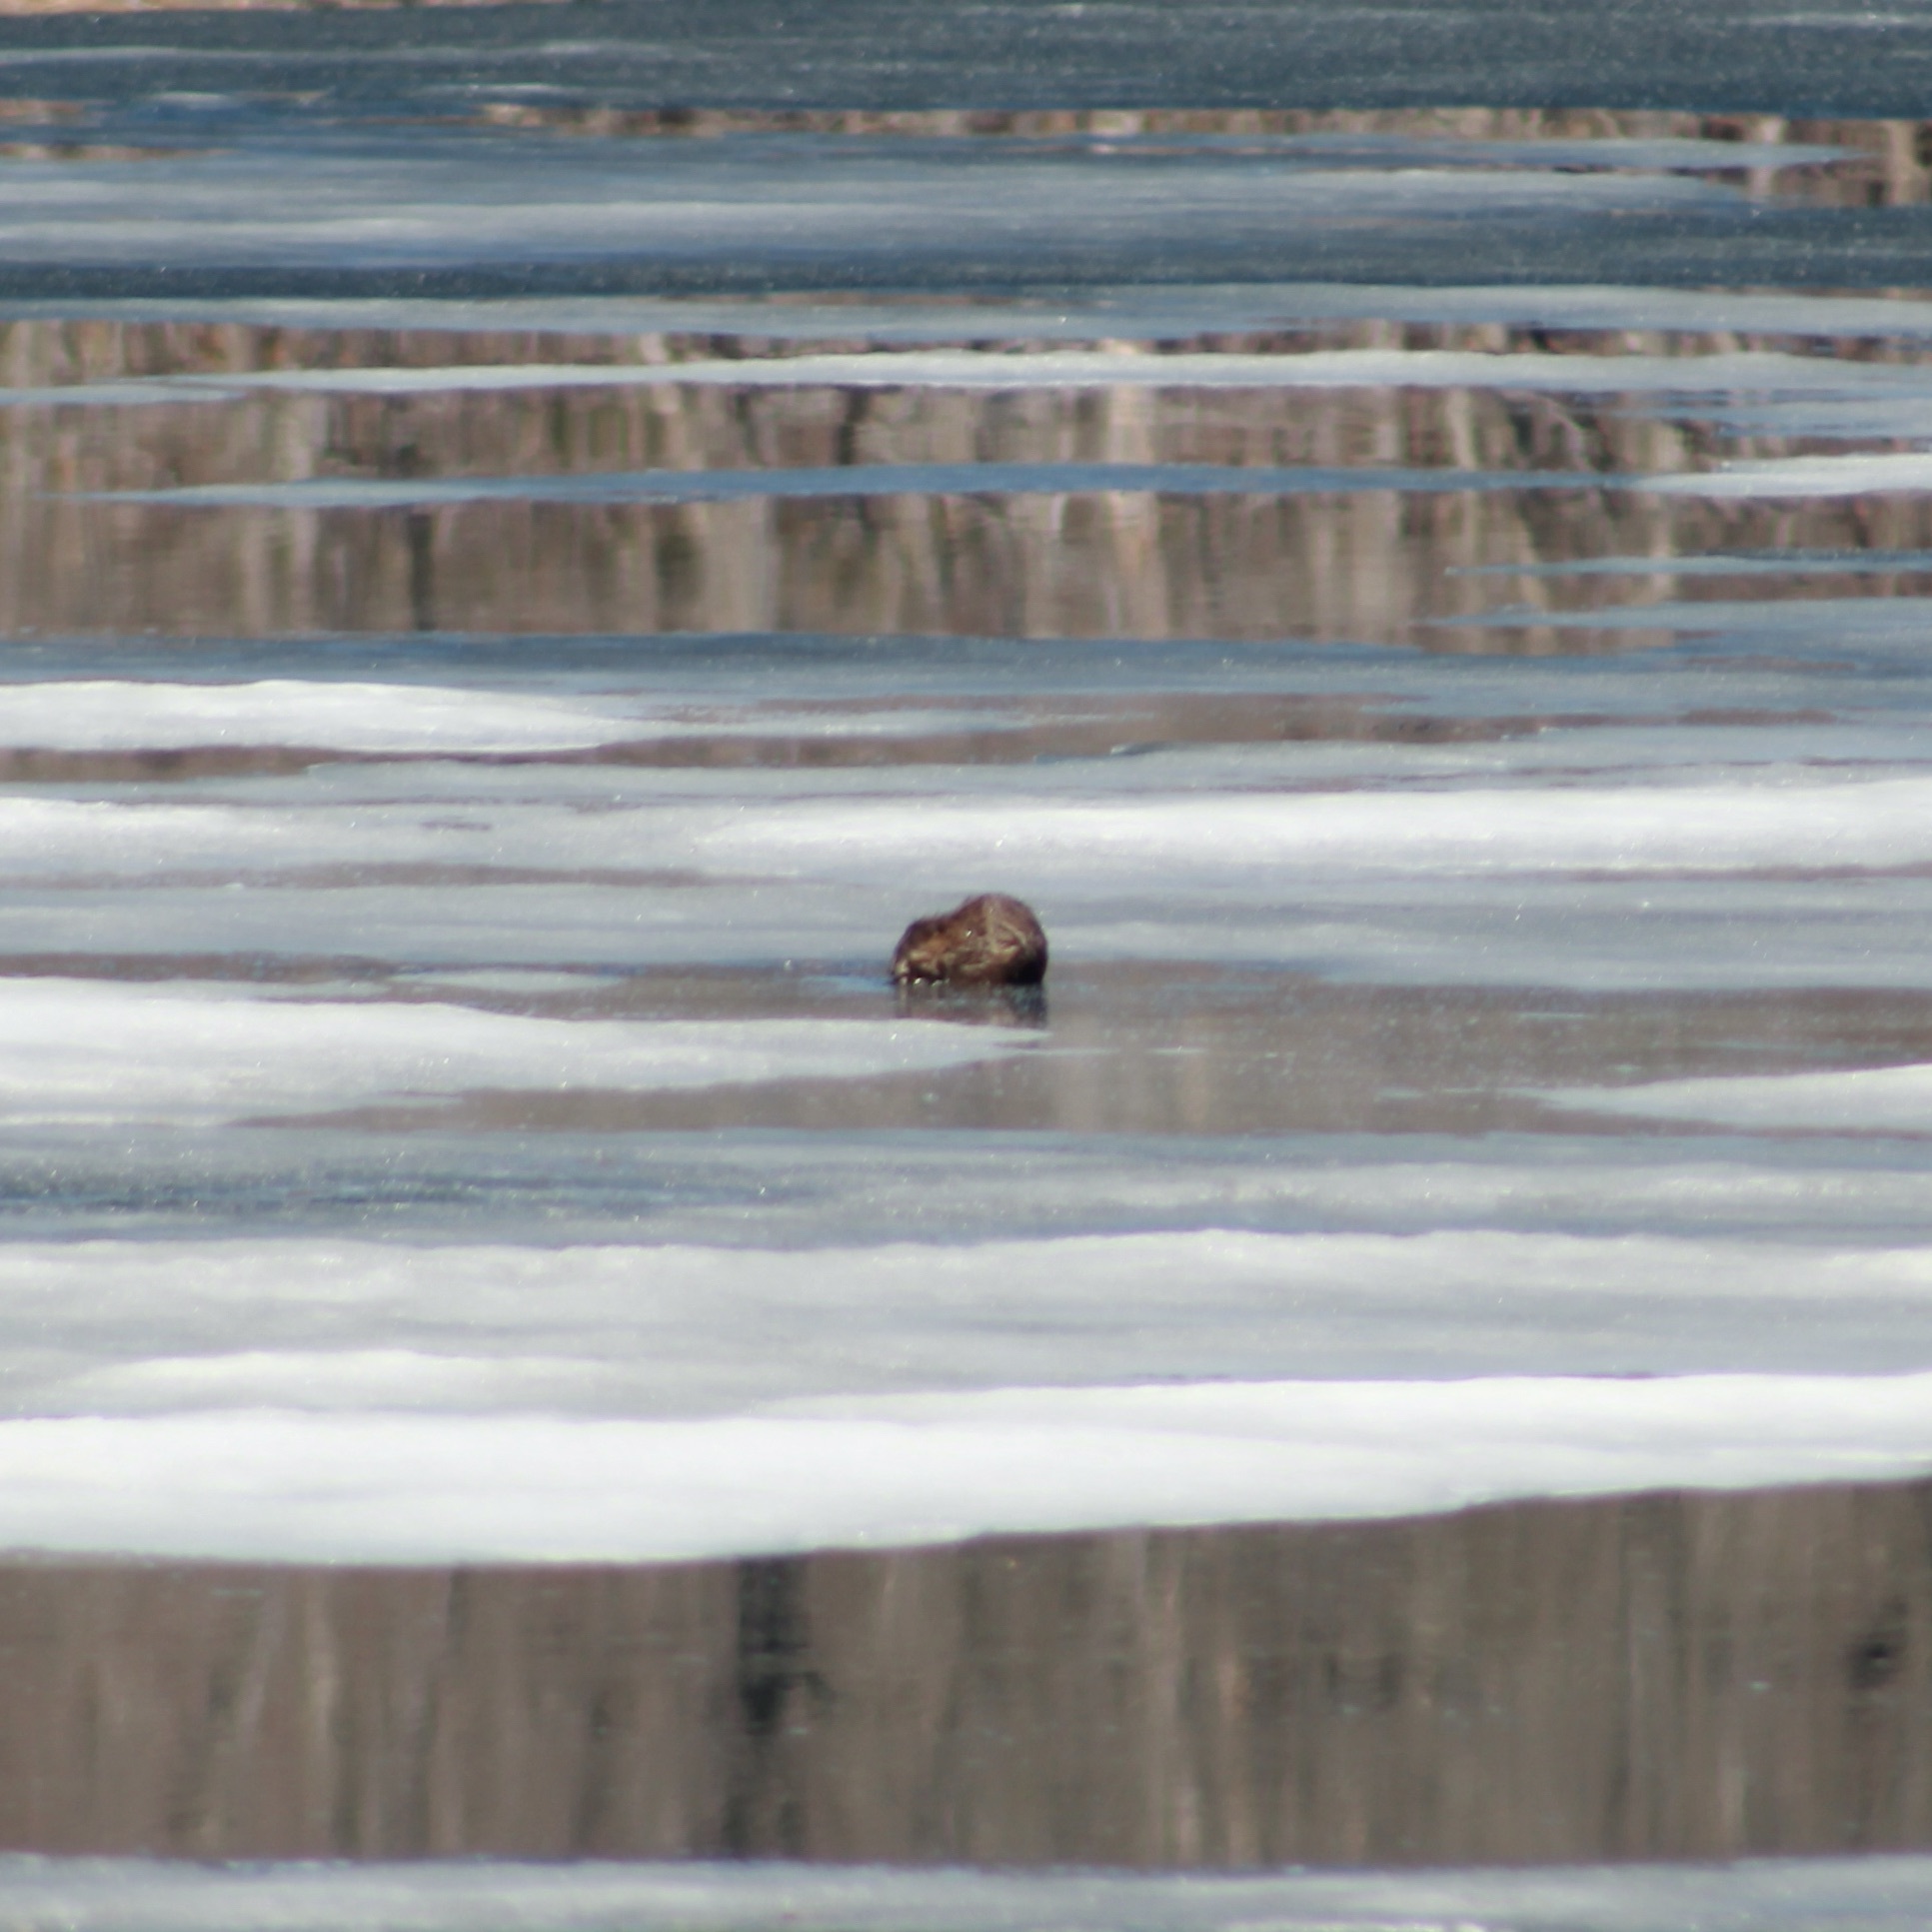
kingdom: Animalia
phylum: Chordata
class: Mammalia
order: Rodentia
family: Cricetidae
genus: Ondatra
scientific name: Ondatra zibethicus
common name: Muskrat
